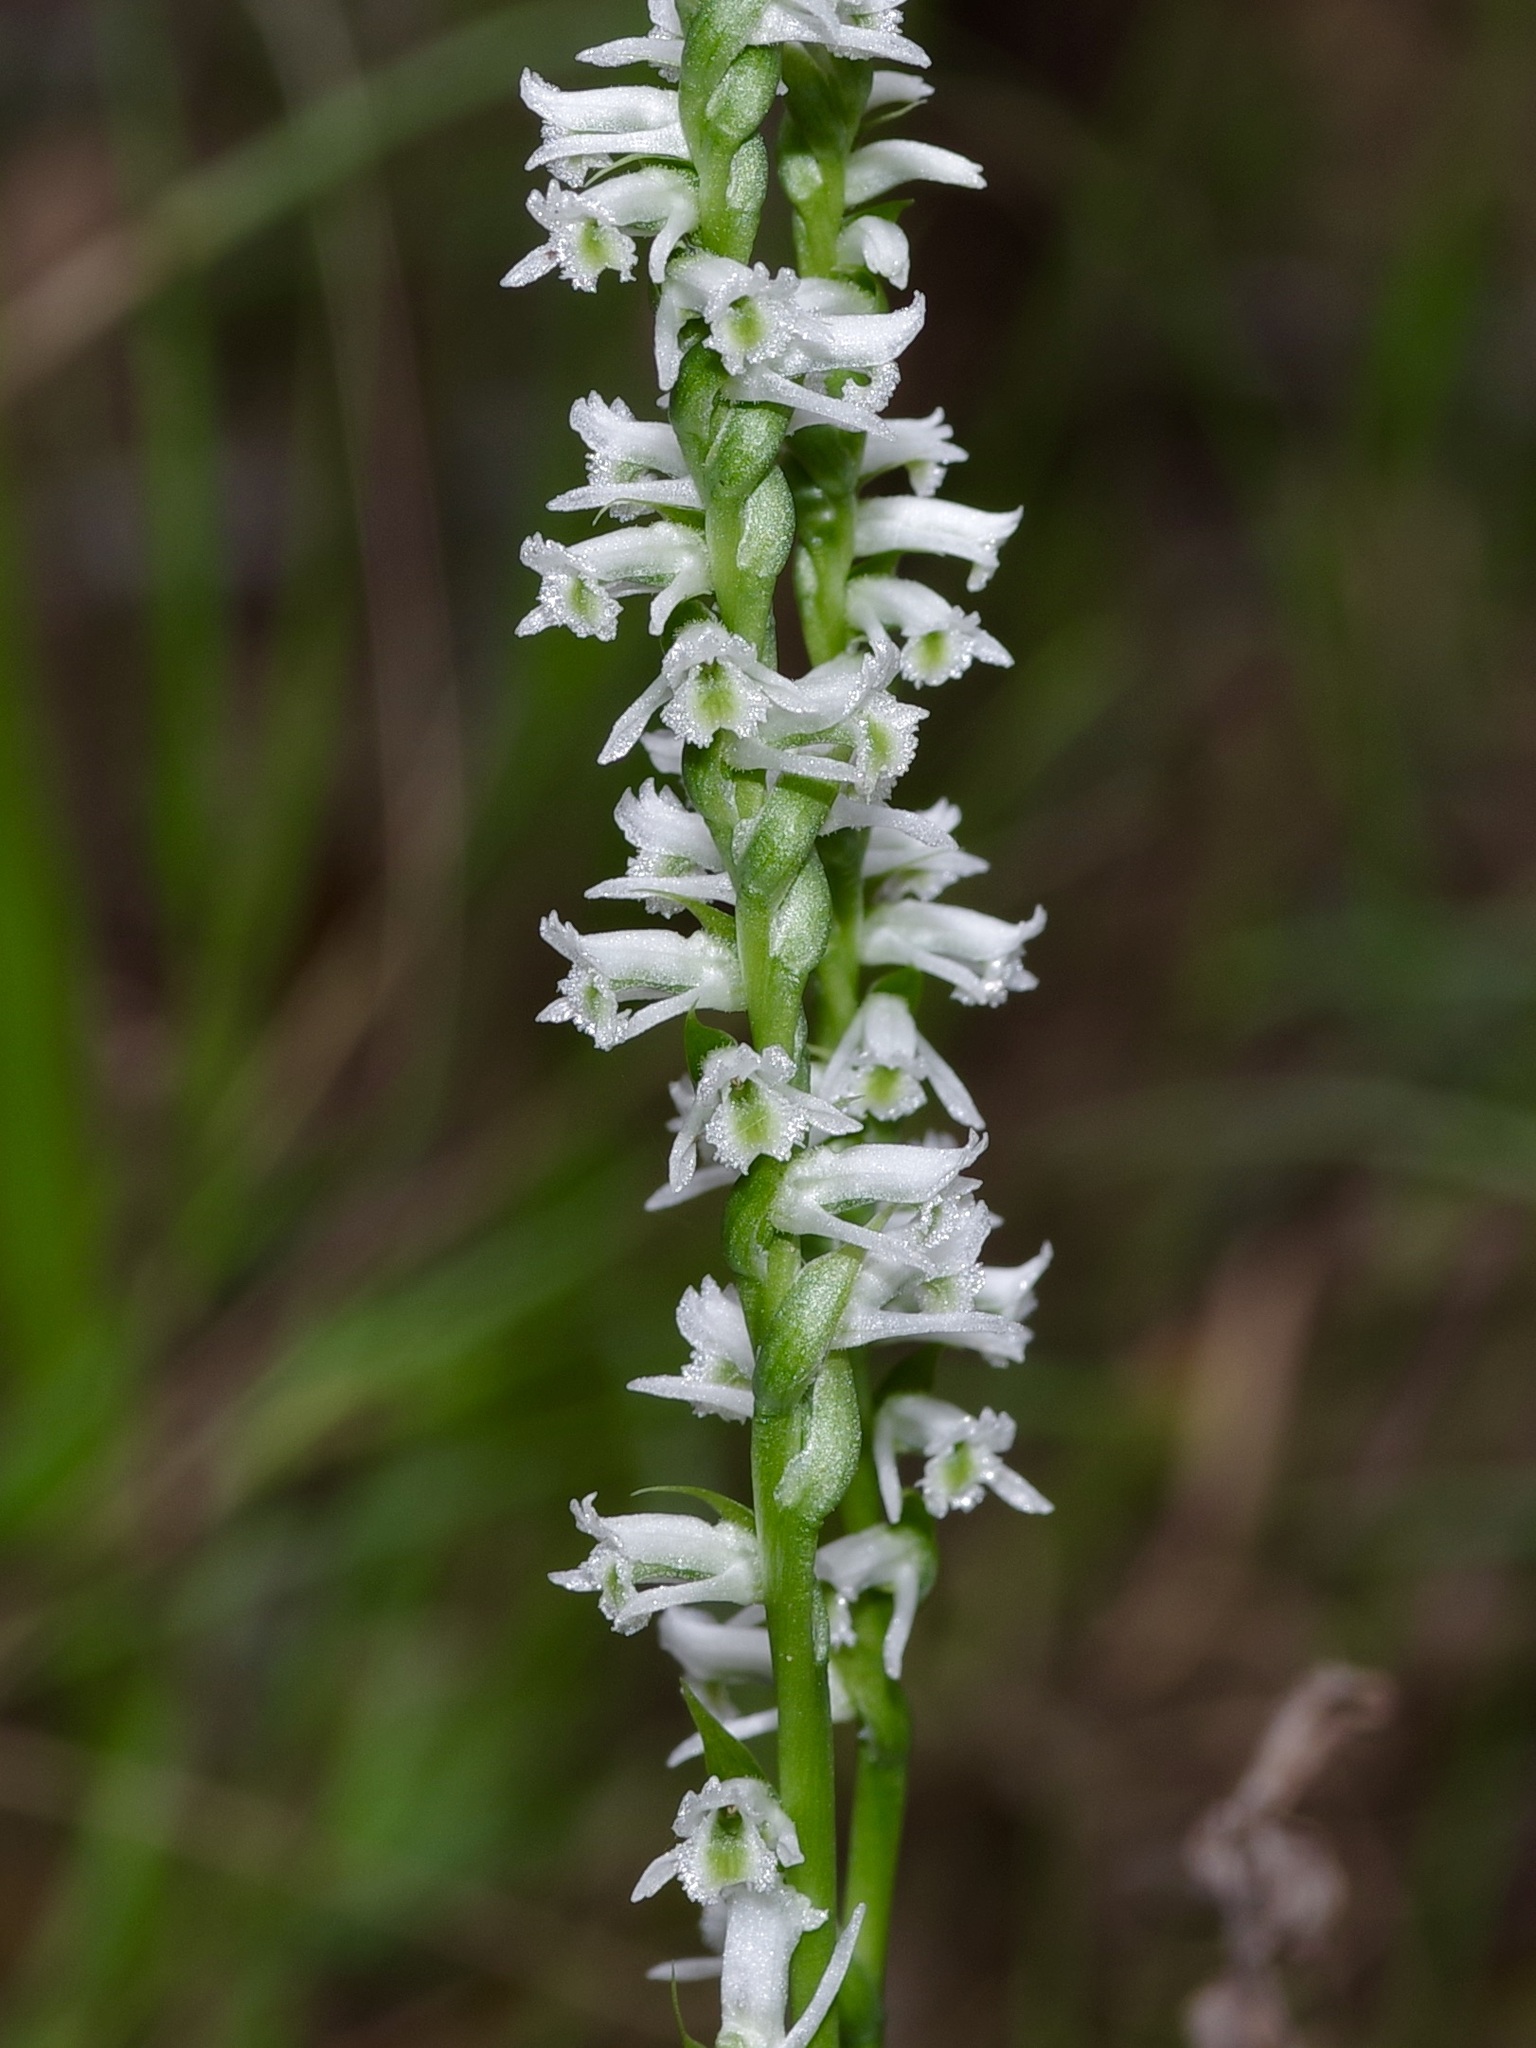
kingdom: Plantae
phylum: Tracheophyta
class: Liliopsida
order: Asparagales
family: Orchidaceae
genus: Spiranthes
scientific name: Spiranthes lacera
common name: Northern slender ladies'-tresses
